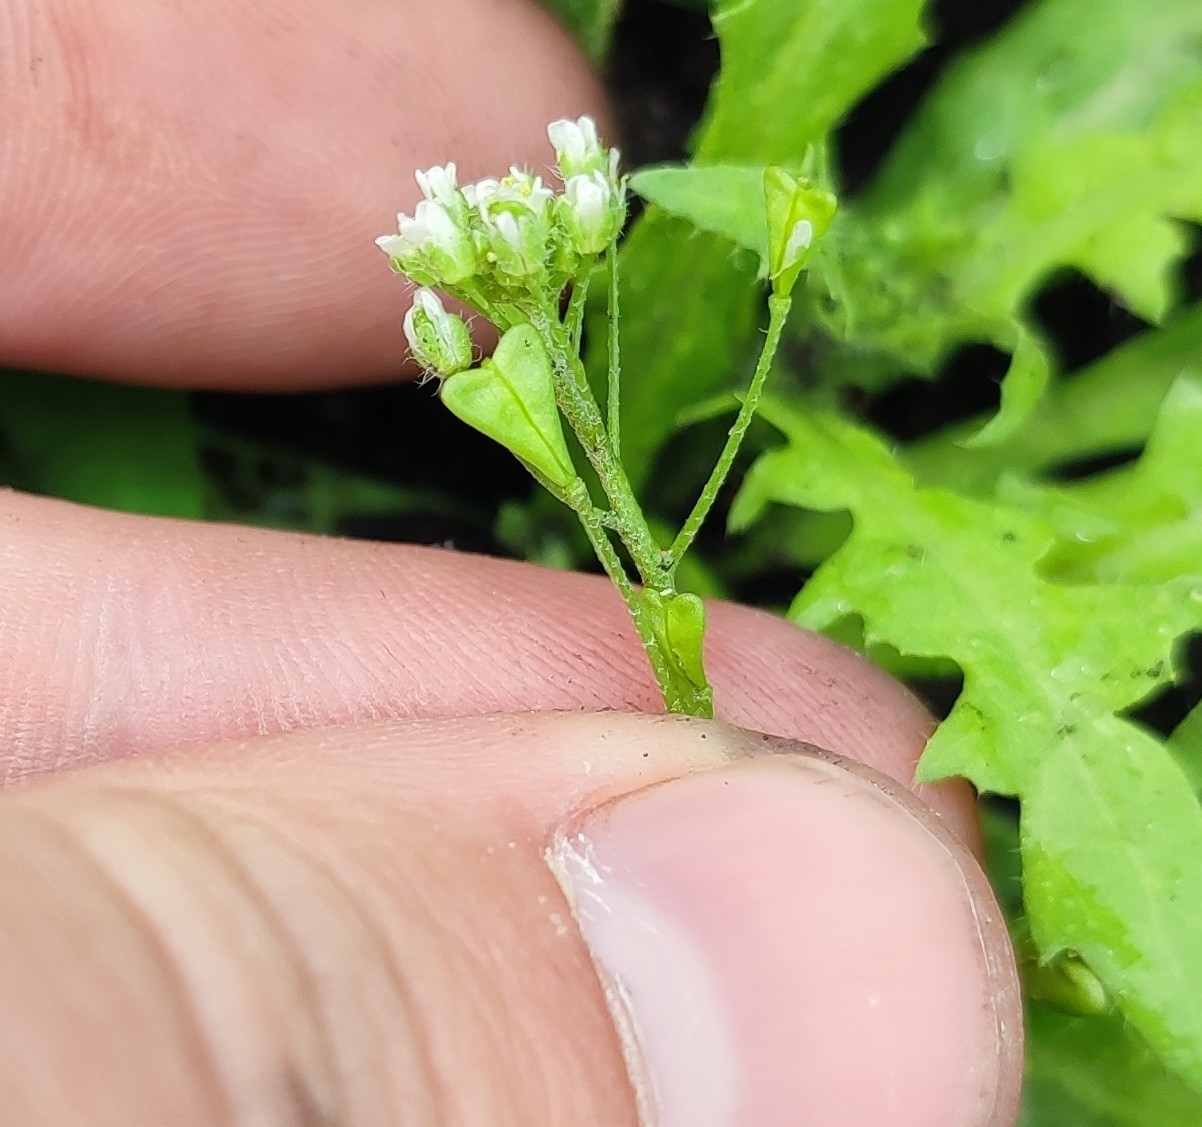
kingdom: Plantae
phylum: Tracheophyta
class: Magnoliopsida
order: Brassicales
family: Brassicaceae
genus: Capsella
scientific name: Capsella bursa-pastoris
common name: Shepherd's purse
